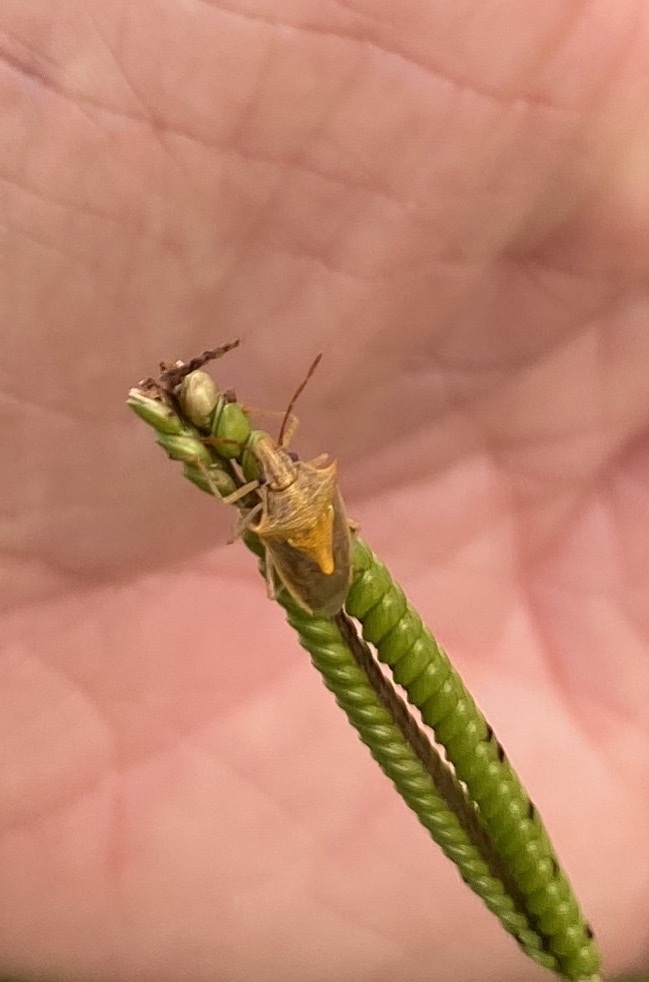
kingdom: Animalia
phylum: Arthropoda
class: Insecta
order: Hemiptera
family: Pentatomidae
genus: Oebalus
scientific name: Oebalus pugnax
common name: Rice stink bug
